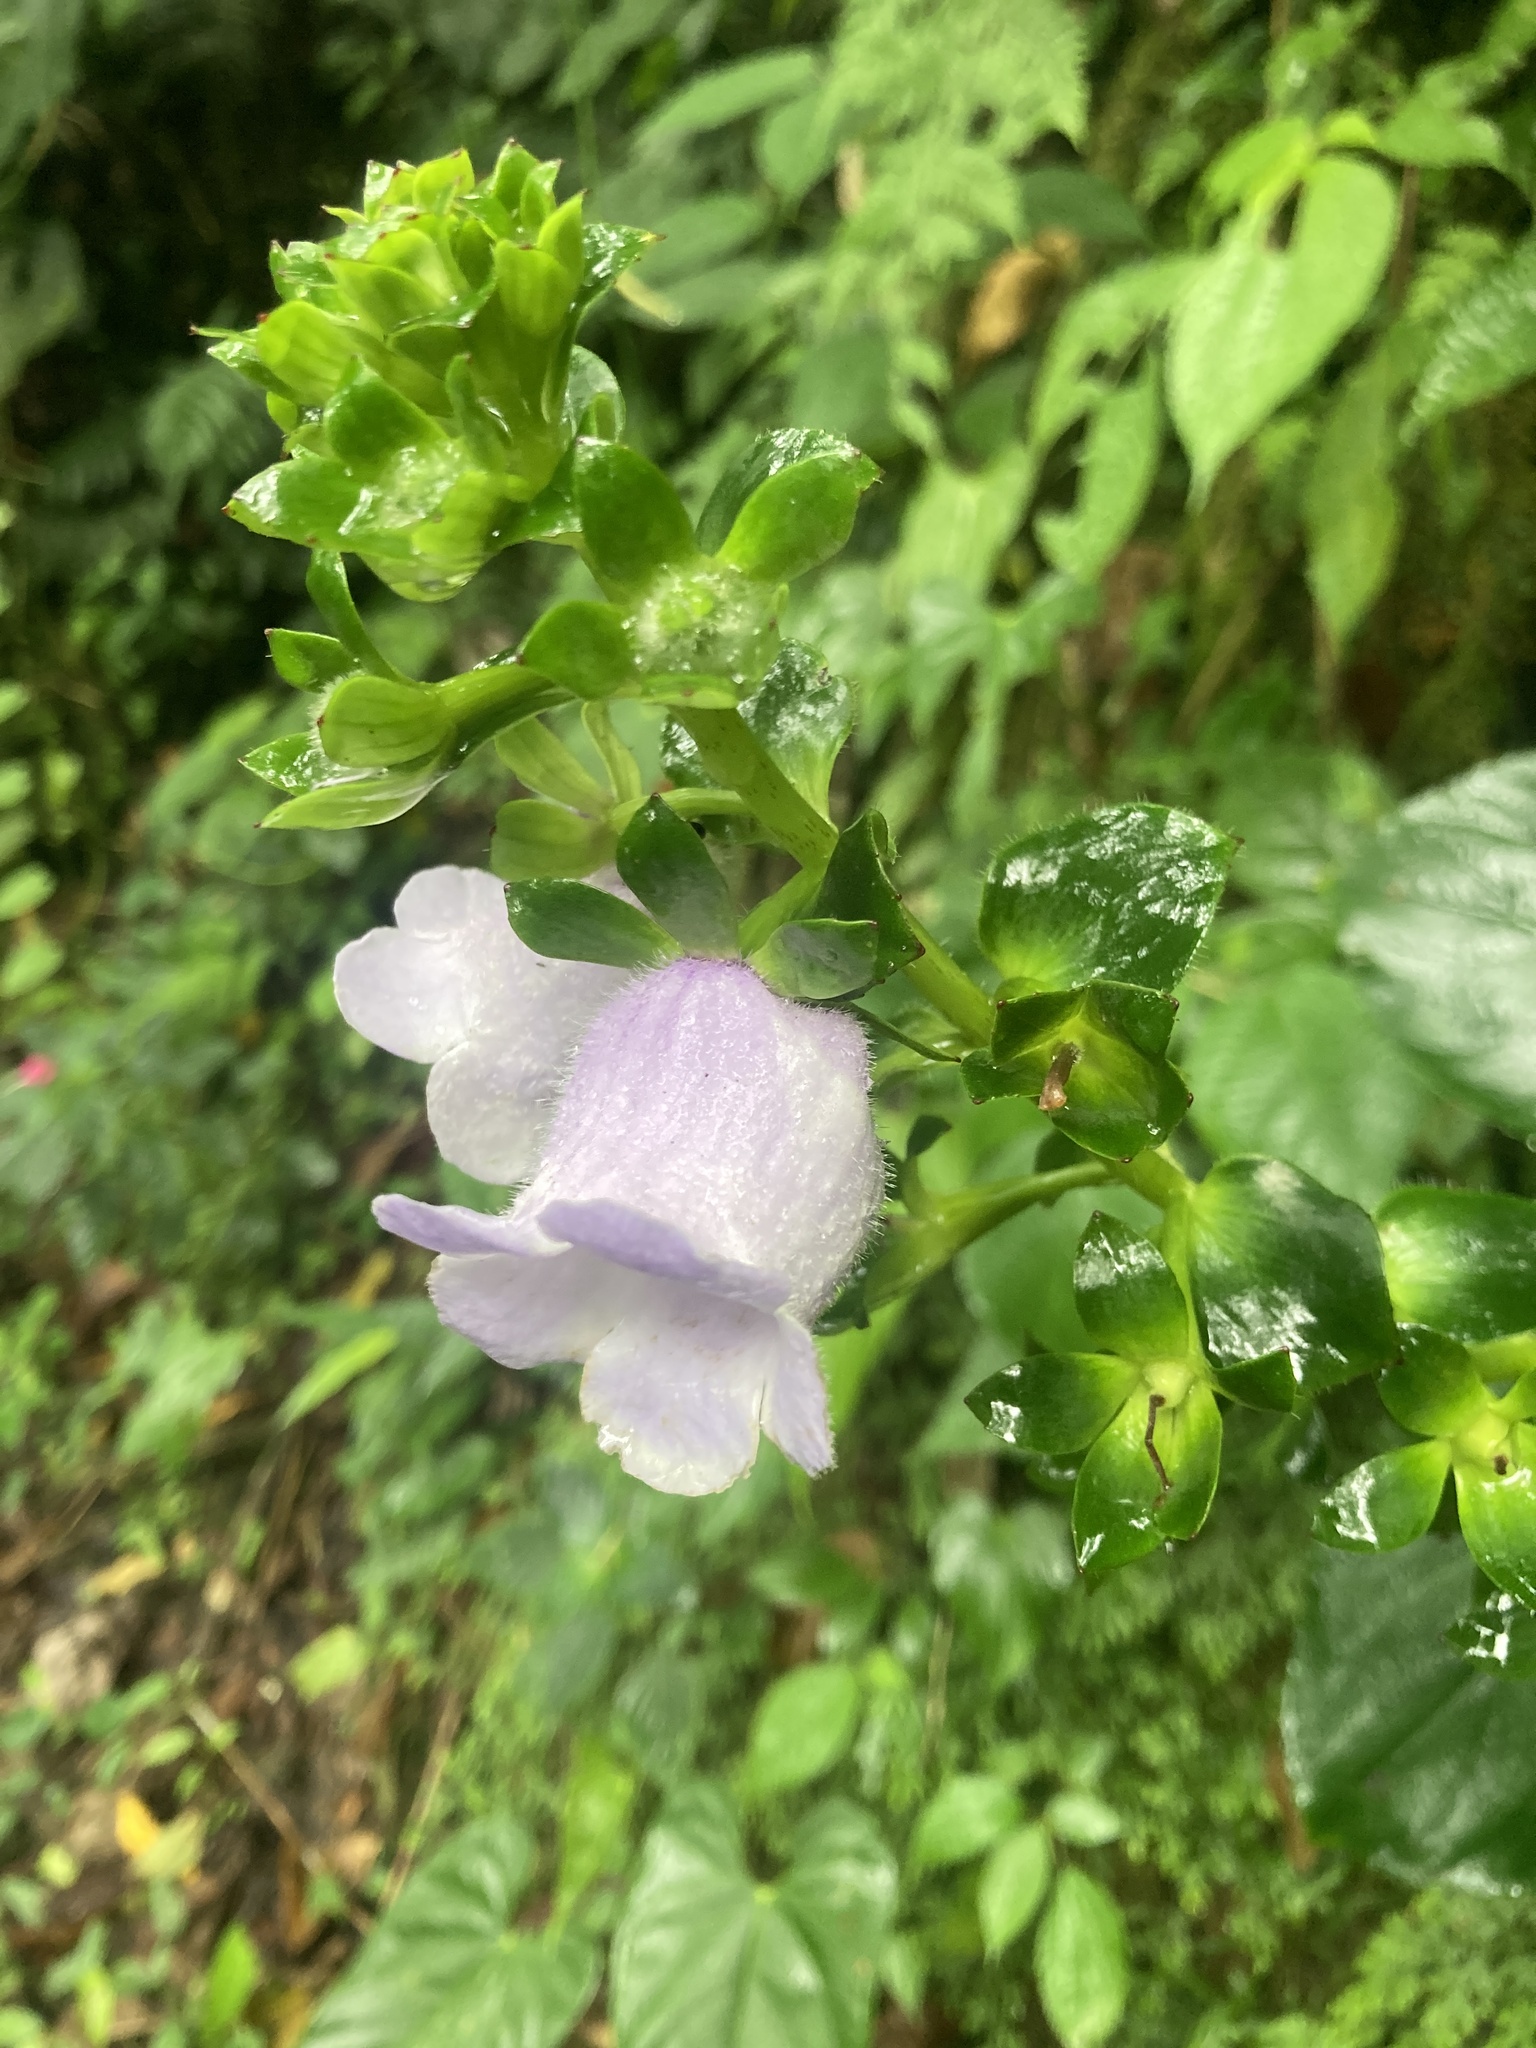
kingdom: Plantae
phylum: Tracheophyta
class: Magnoliopsida
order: Lamiales
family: Gesneriaceae
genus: Gloxinia
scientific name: Gloxinia perennis
